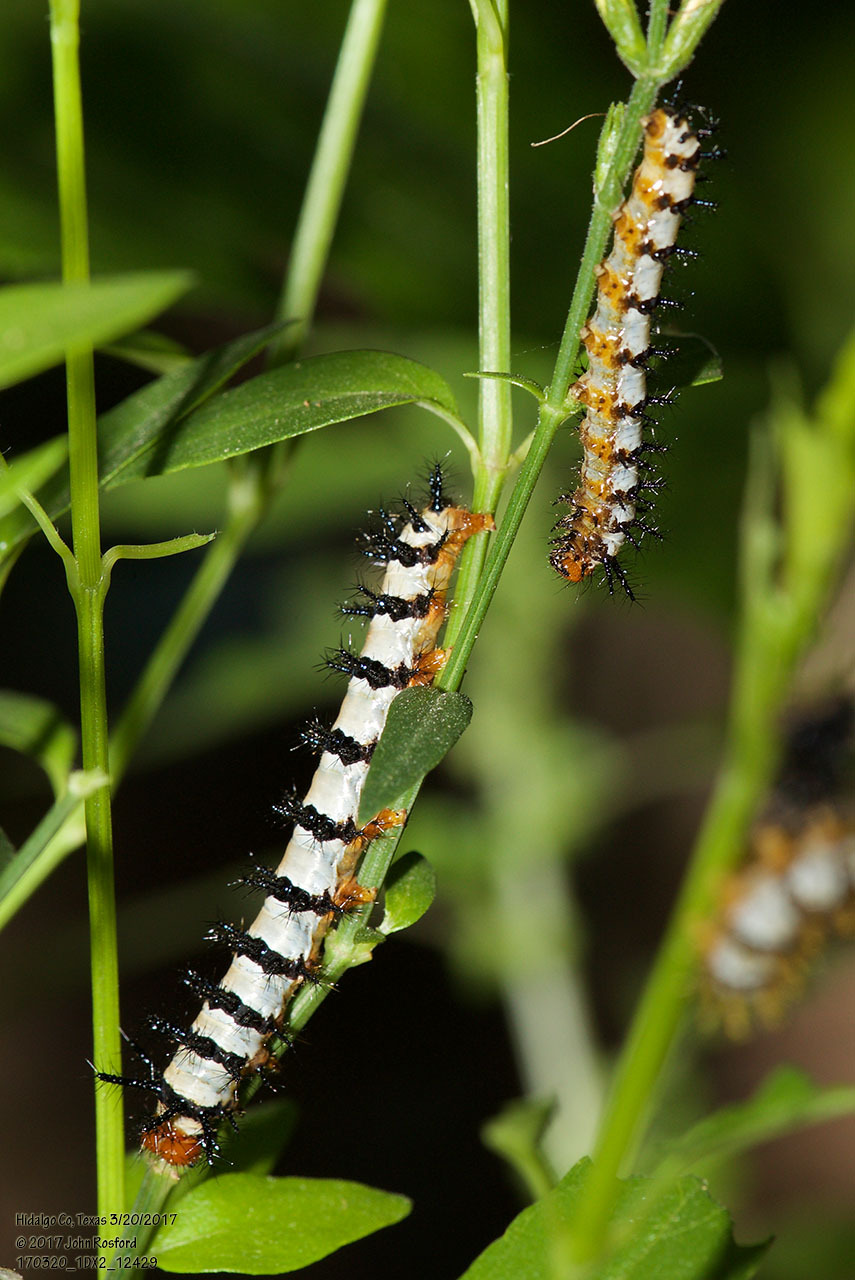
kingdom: Animalia
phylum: Arthropoda
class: Insecta
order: Lepidoptera
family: Nymphalidae
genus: Chlosyne
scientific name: Chlosyne janais
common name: Crimson patch
